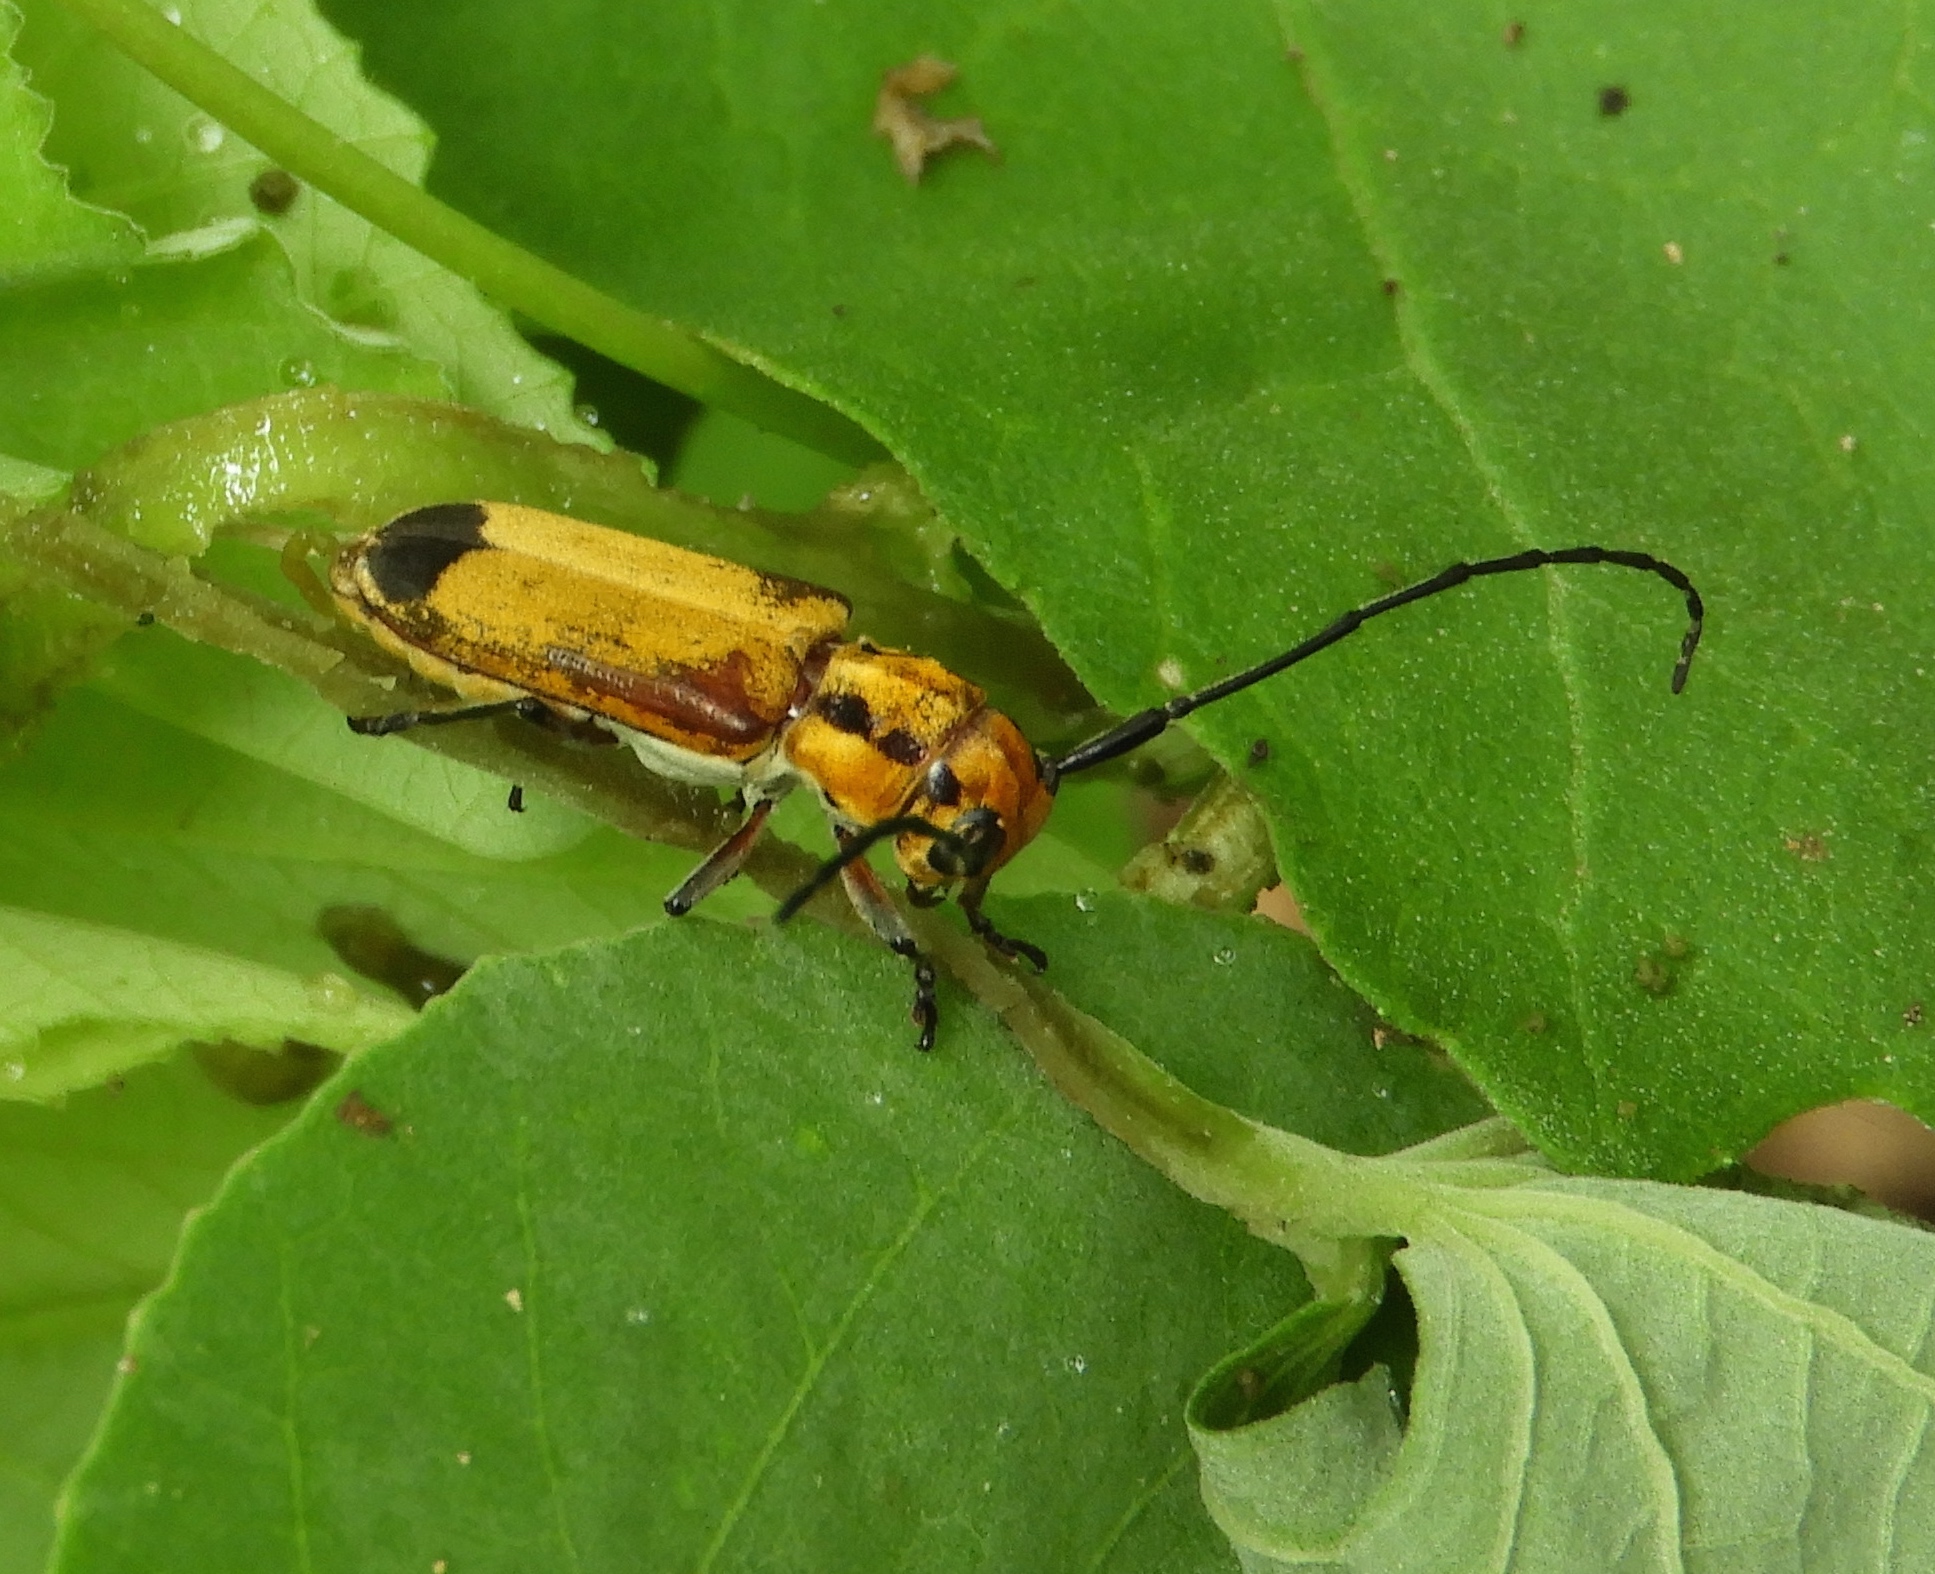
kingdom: Animalia
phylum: Arthropoda
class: Insecta
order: Coleoptera
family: Cerambycidae
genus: Essostrutha
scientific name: Essostrutha laeta
